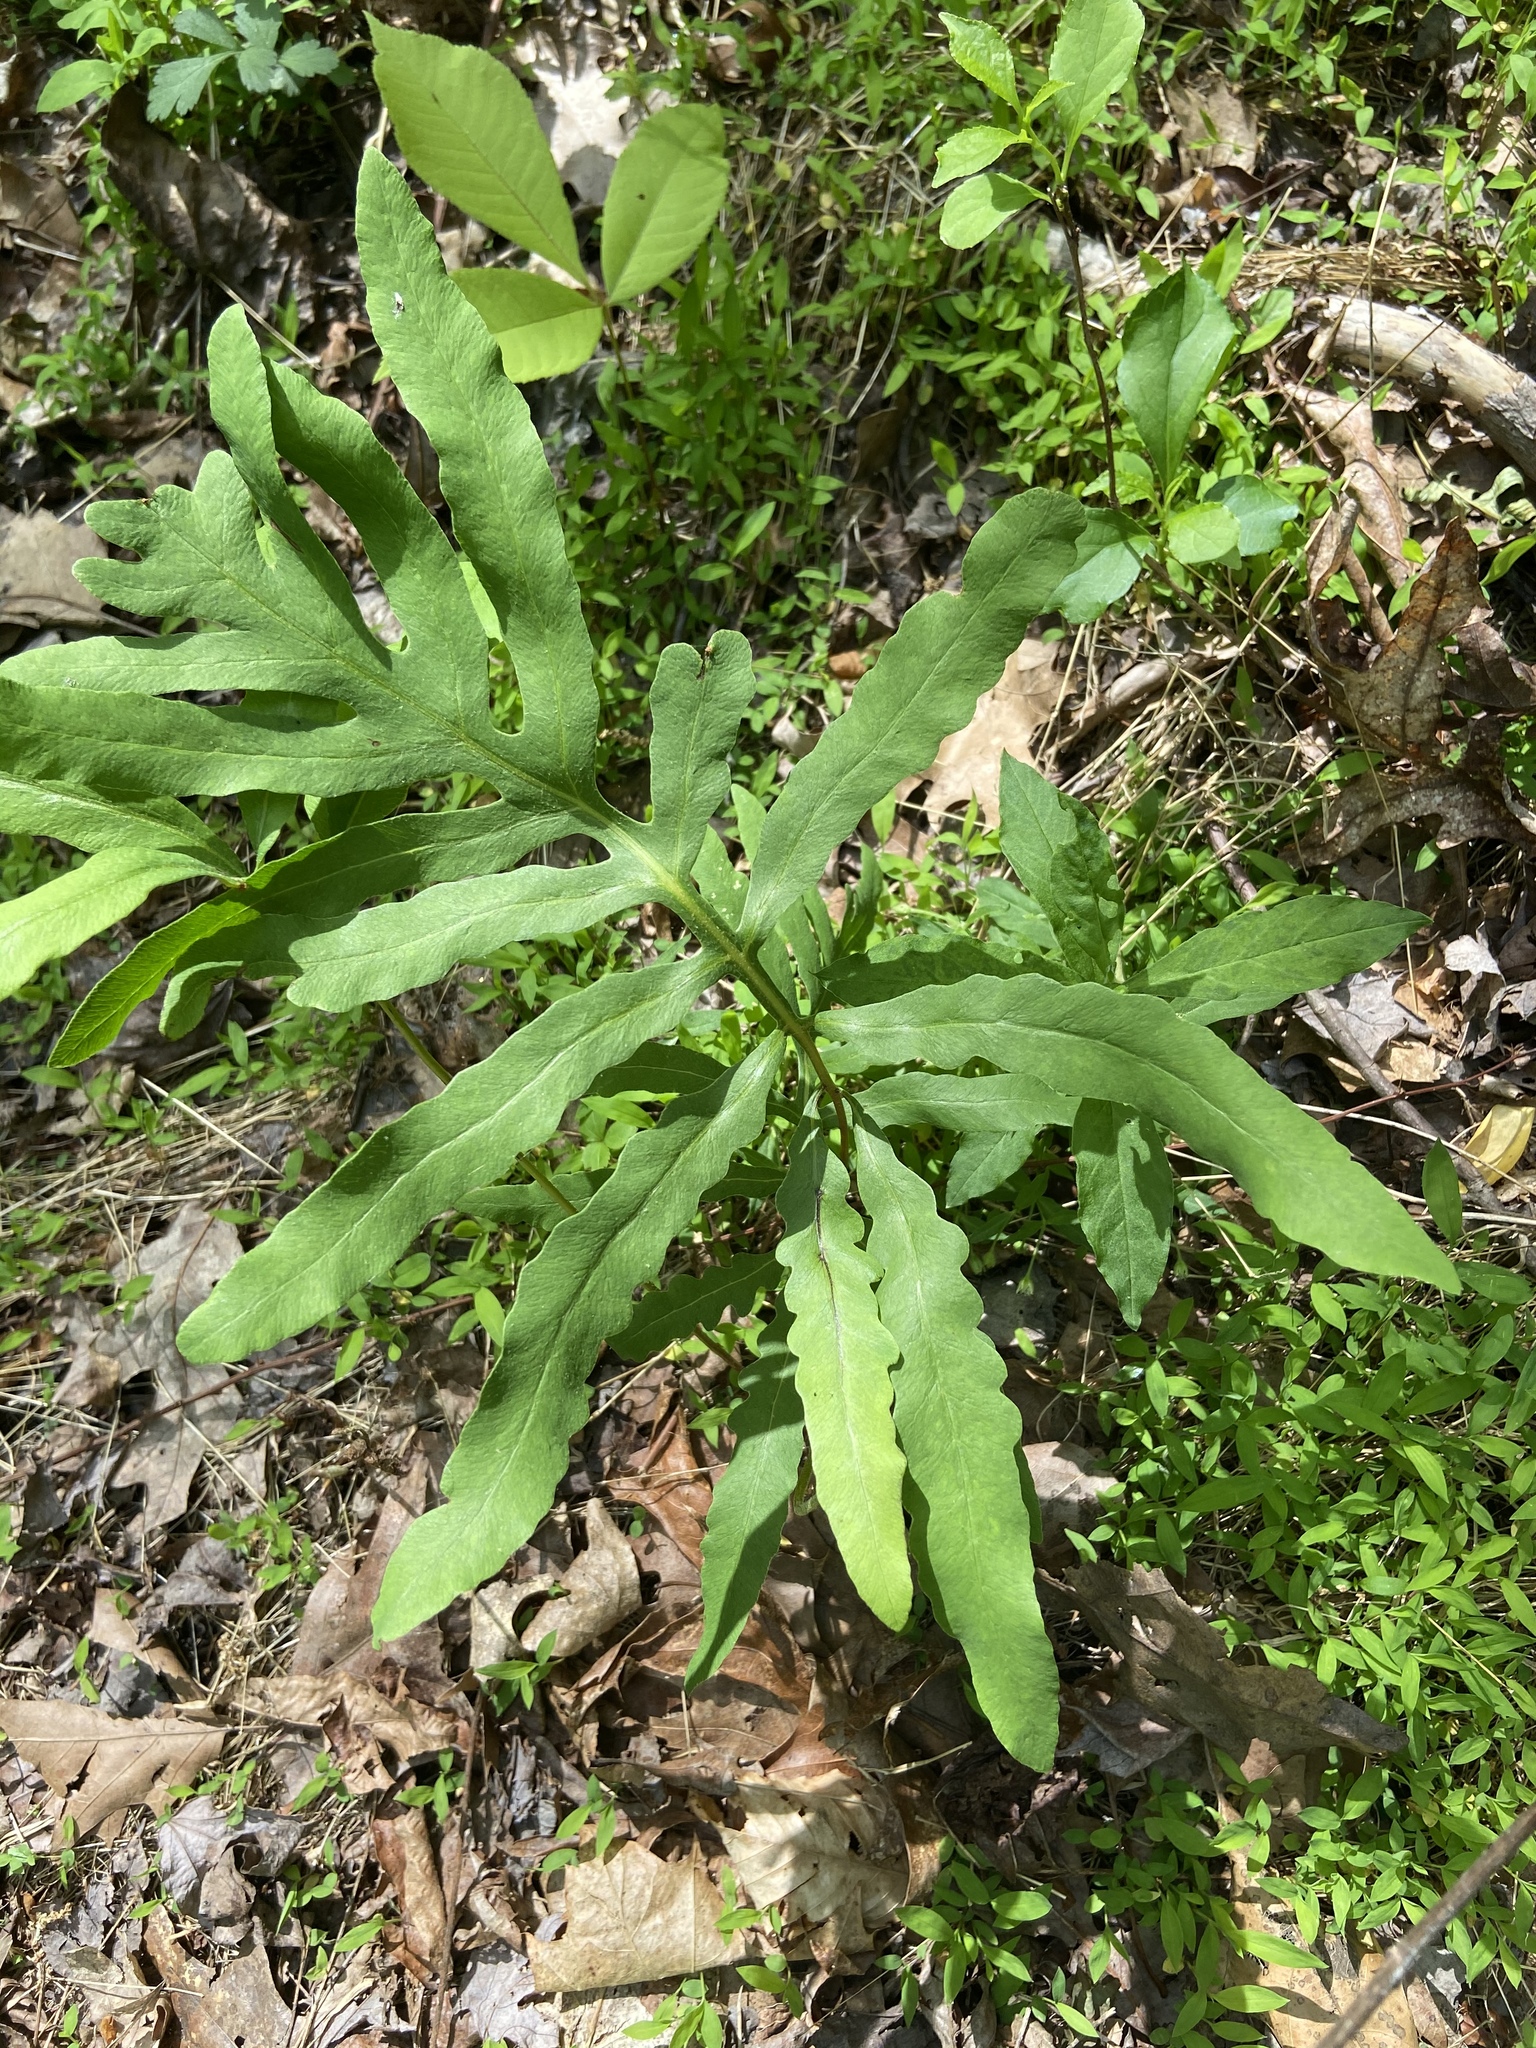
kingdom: Plantae
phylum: Tracheophyta
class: Polypodiopsida
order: Polypodiales
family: Onocleaceae
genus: Onoclea
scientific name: Onoclea sensibilis
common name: Sensitive fern
